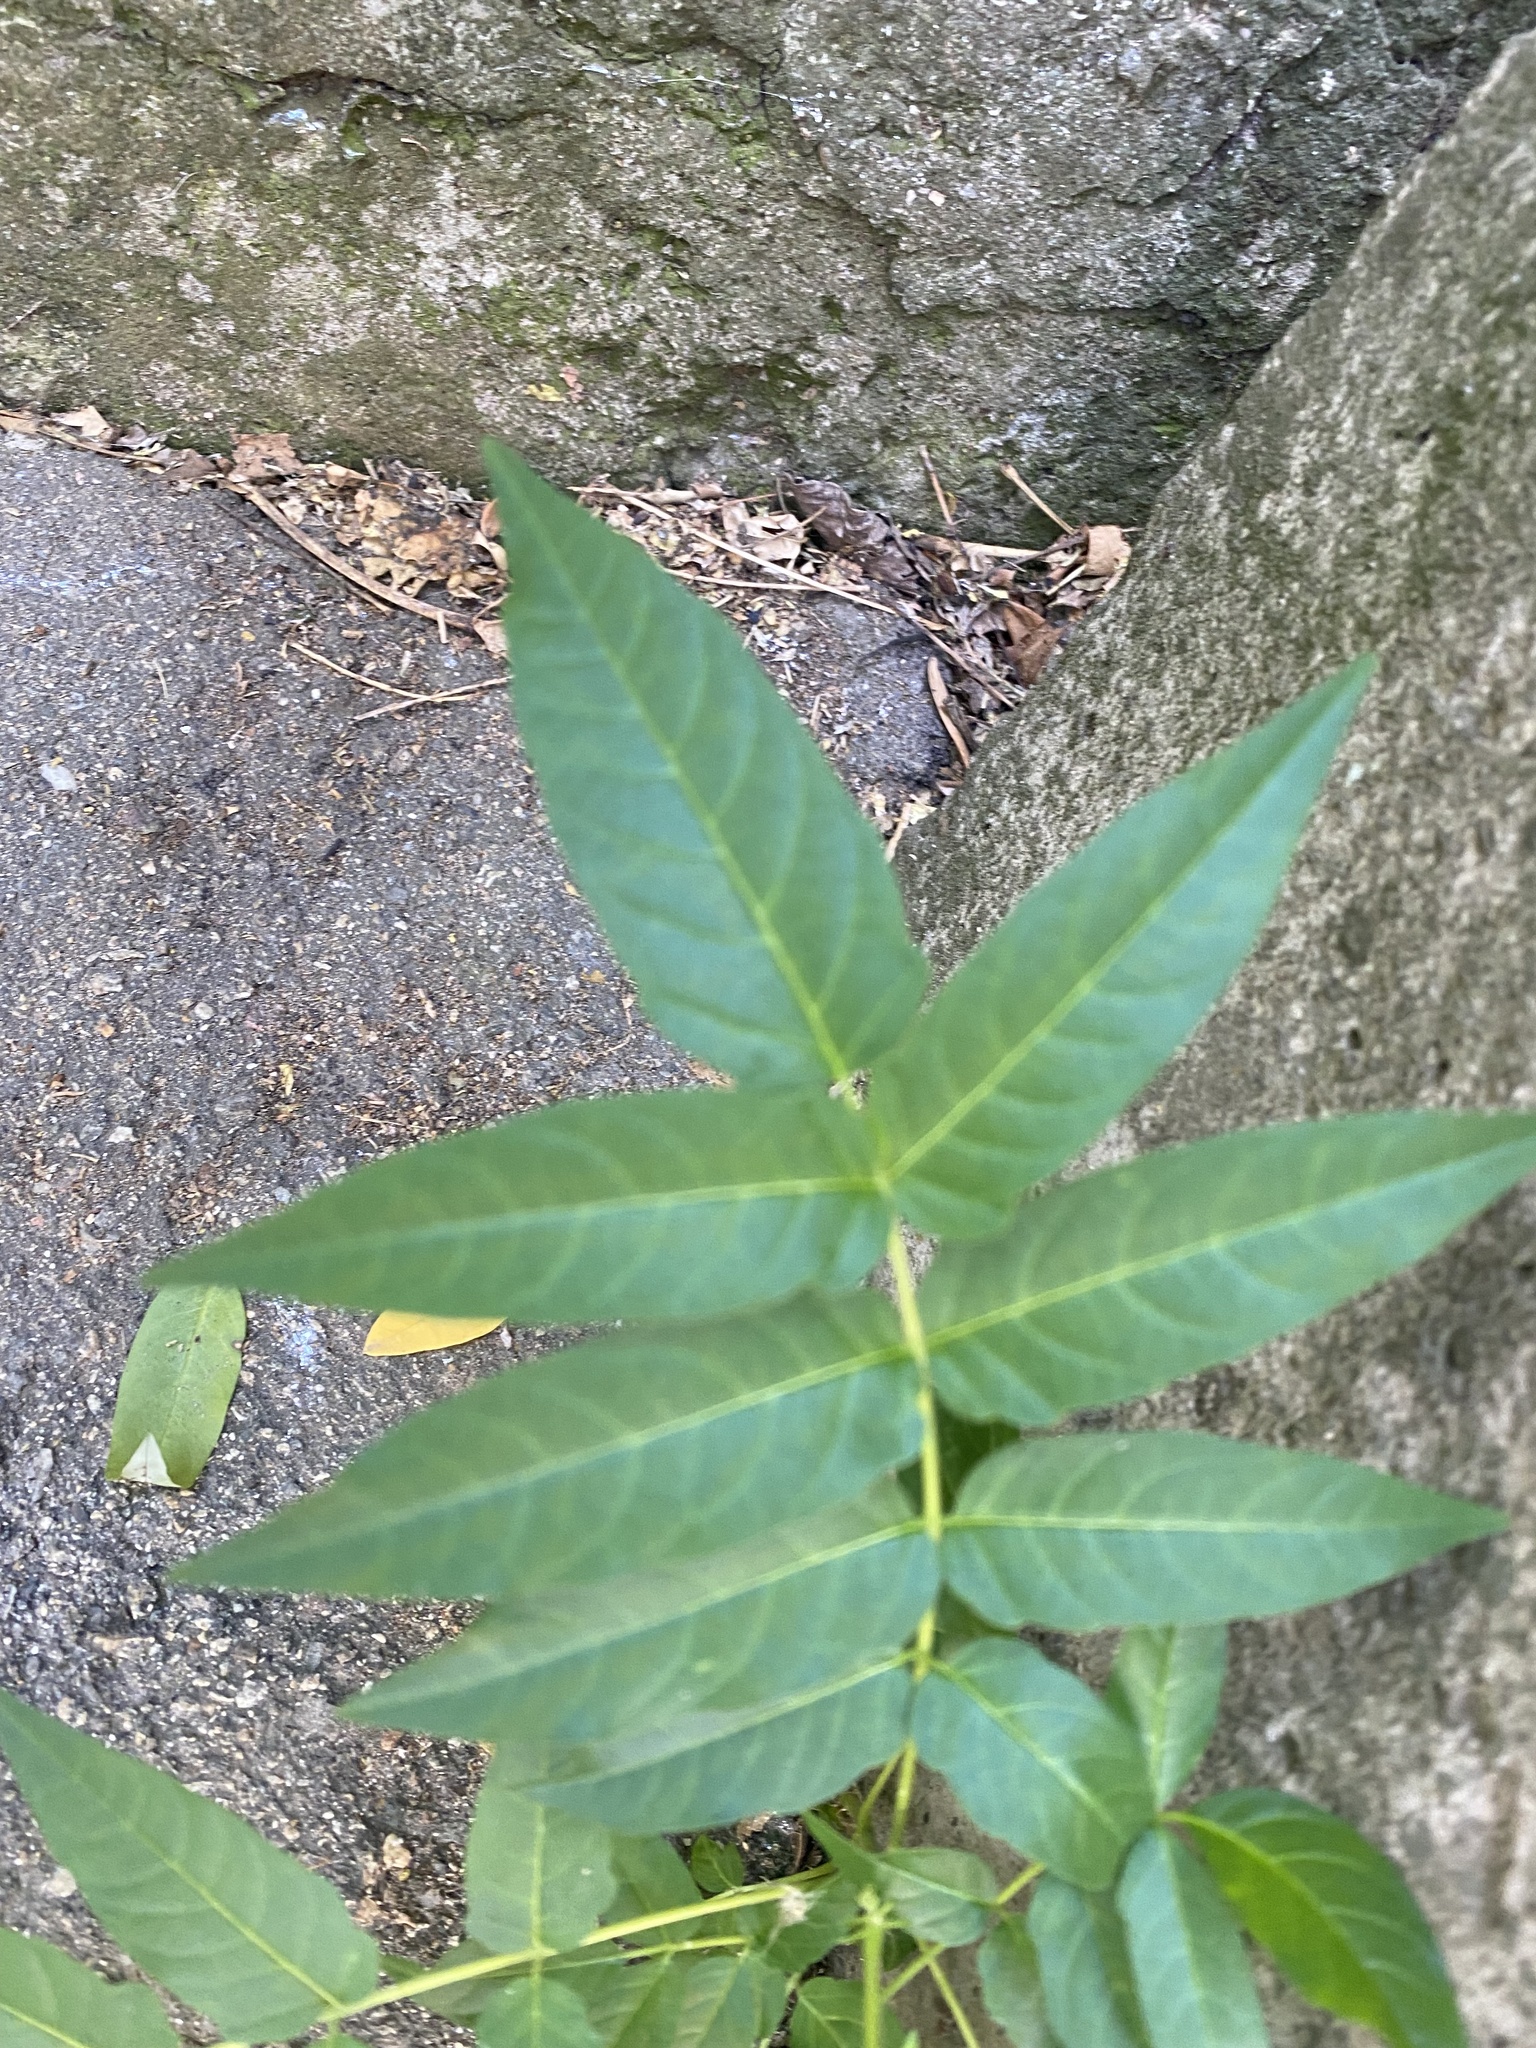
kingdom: Plantae
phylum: Tracheophyta
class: Magnoliopsida
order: Sapindales
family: Simaroubaceae
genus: Ailanthus
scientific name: Ailanthus altissima
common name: Tree-of-heaven
